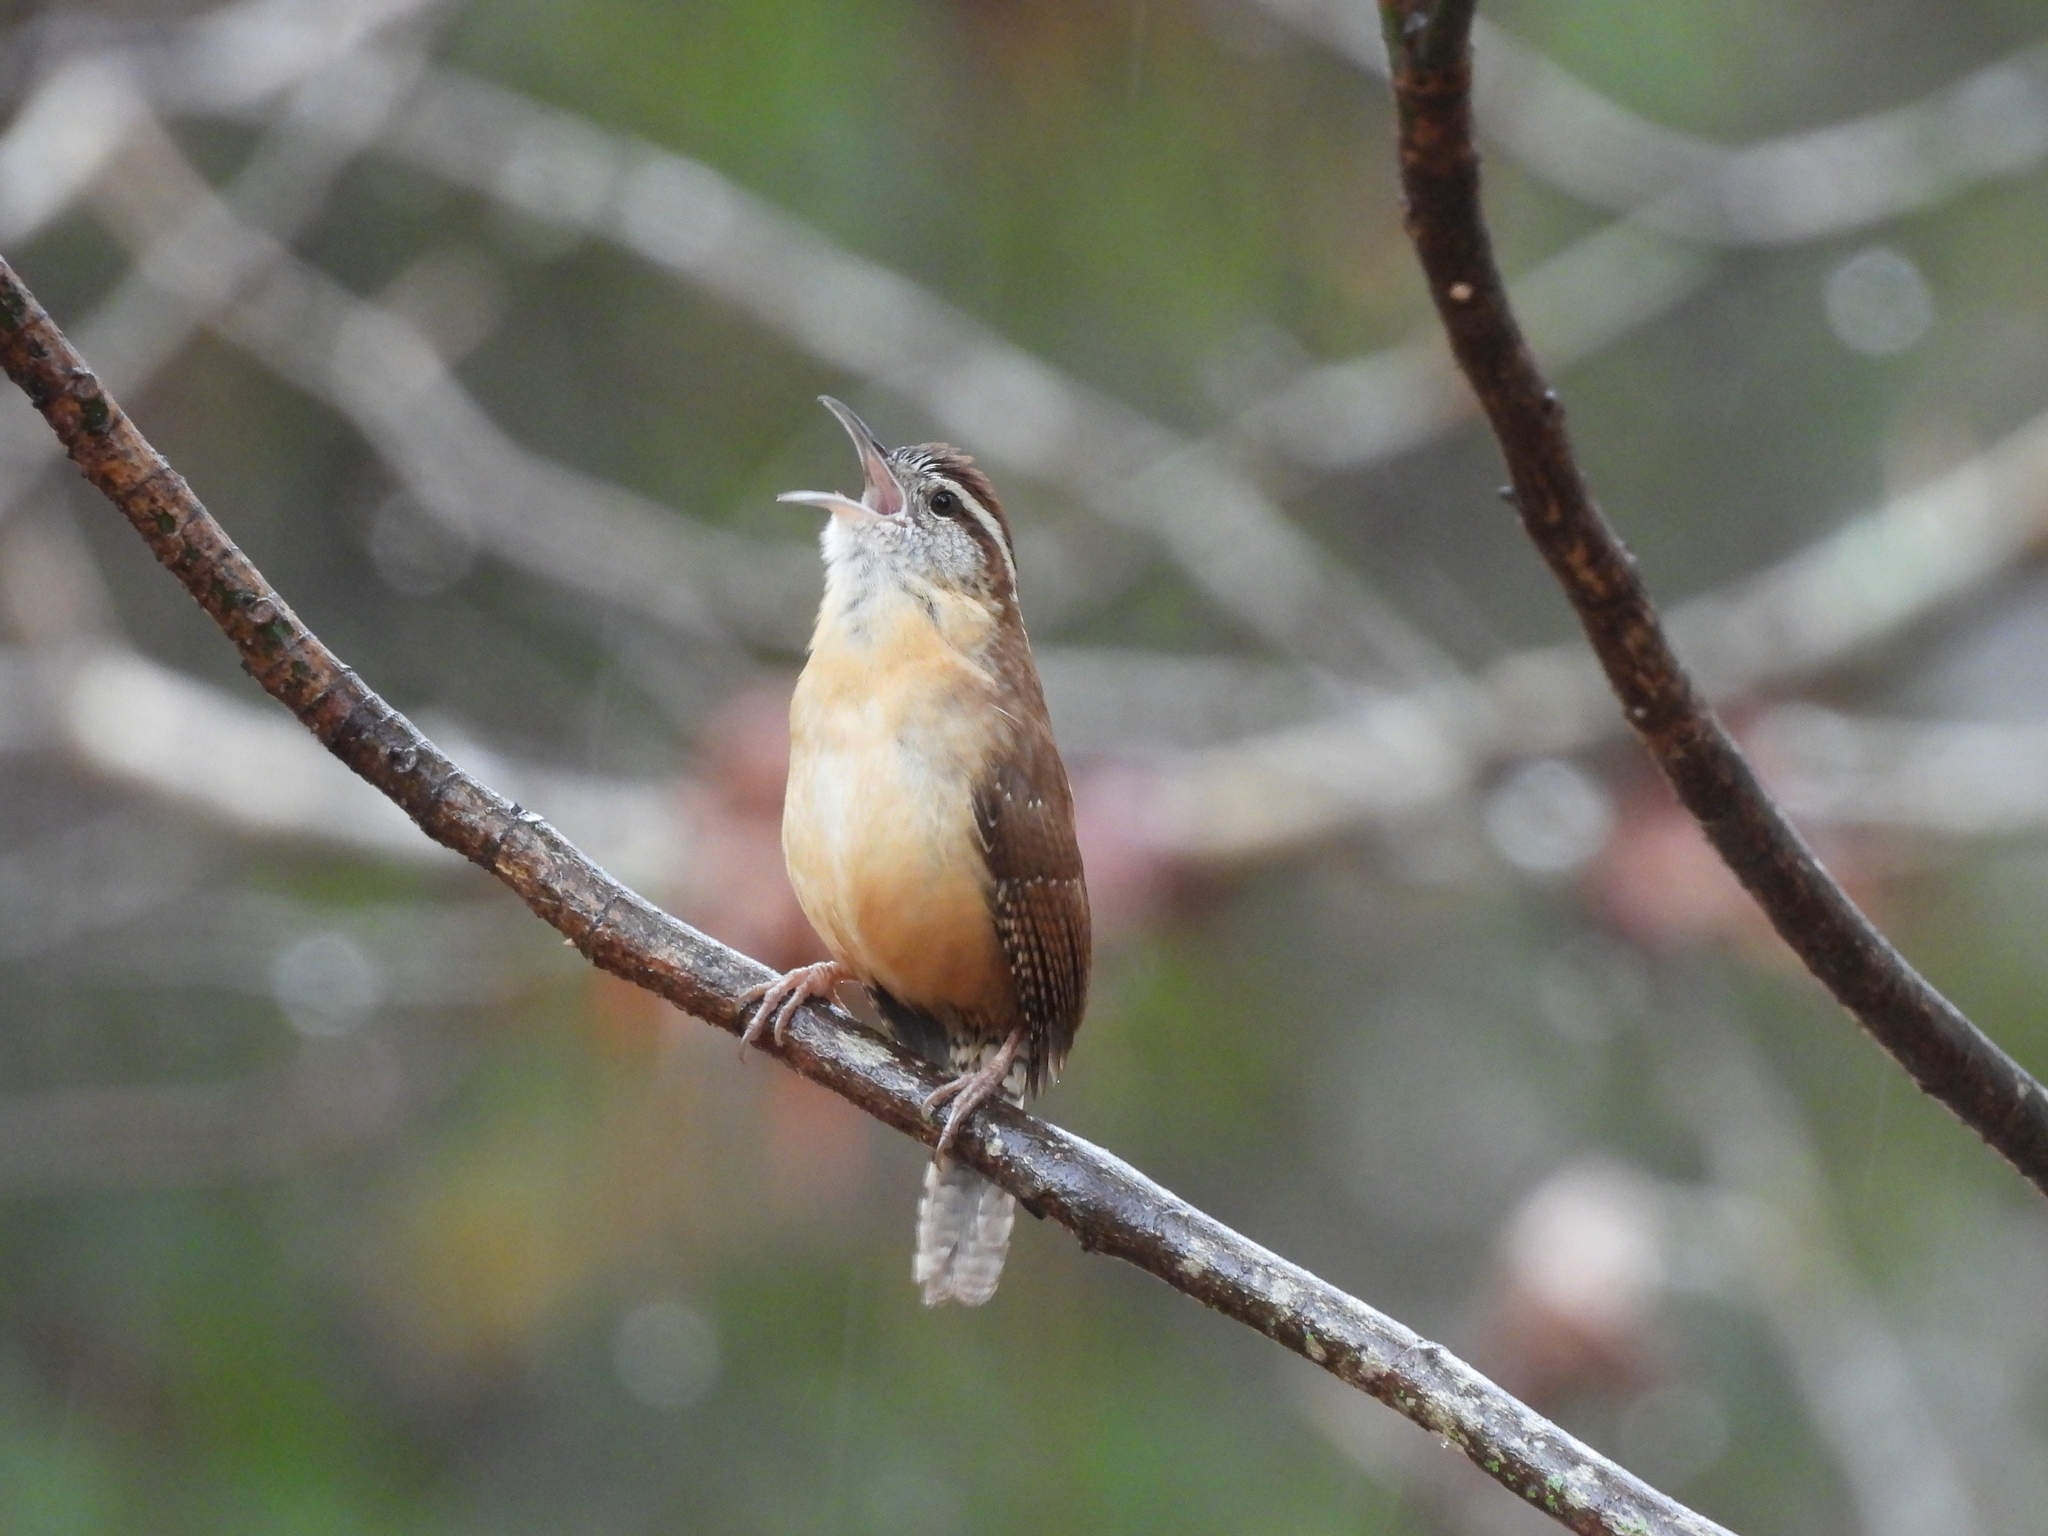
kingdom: Animalia
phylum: Chordata
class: Aves
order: Passeriformes
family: Troglodytidae
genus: Thryothorus
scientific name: Thryothorus ludovicianus
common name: Carolina wren
